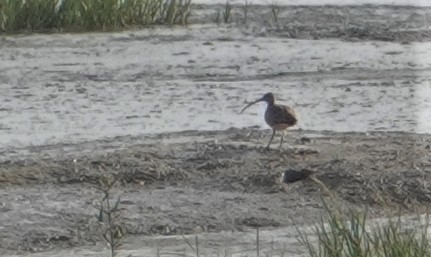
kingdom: Animalia
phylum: Chordata
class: Aves
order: Charadriiformes
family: Scolopacidae
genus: Numenius
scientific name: Numenius americanus
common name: Long-billed curlew
